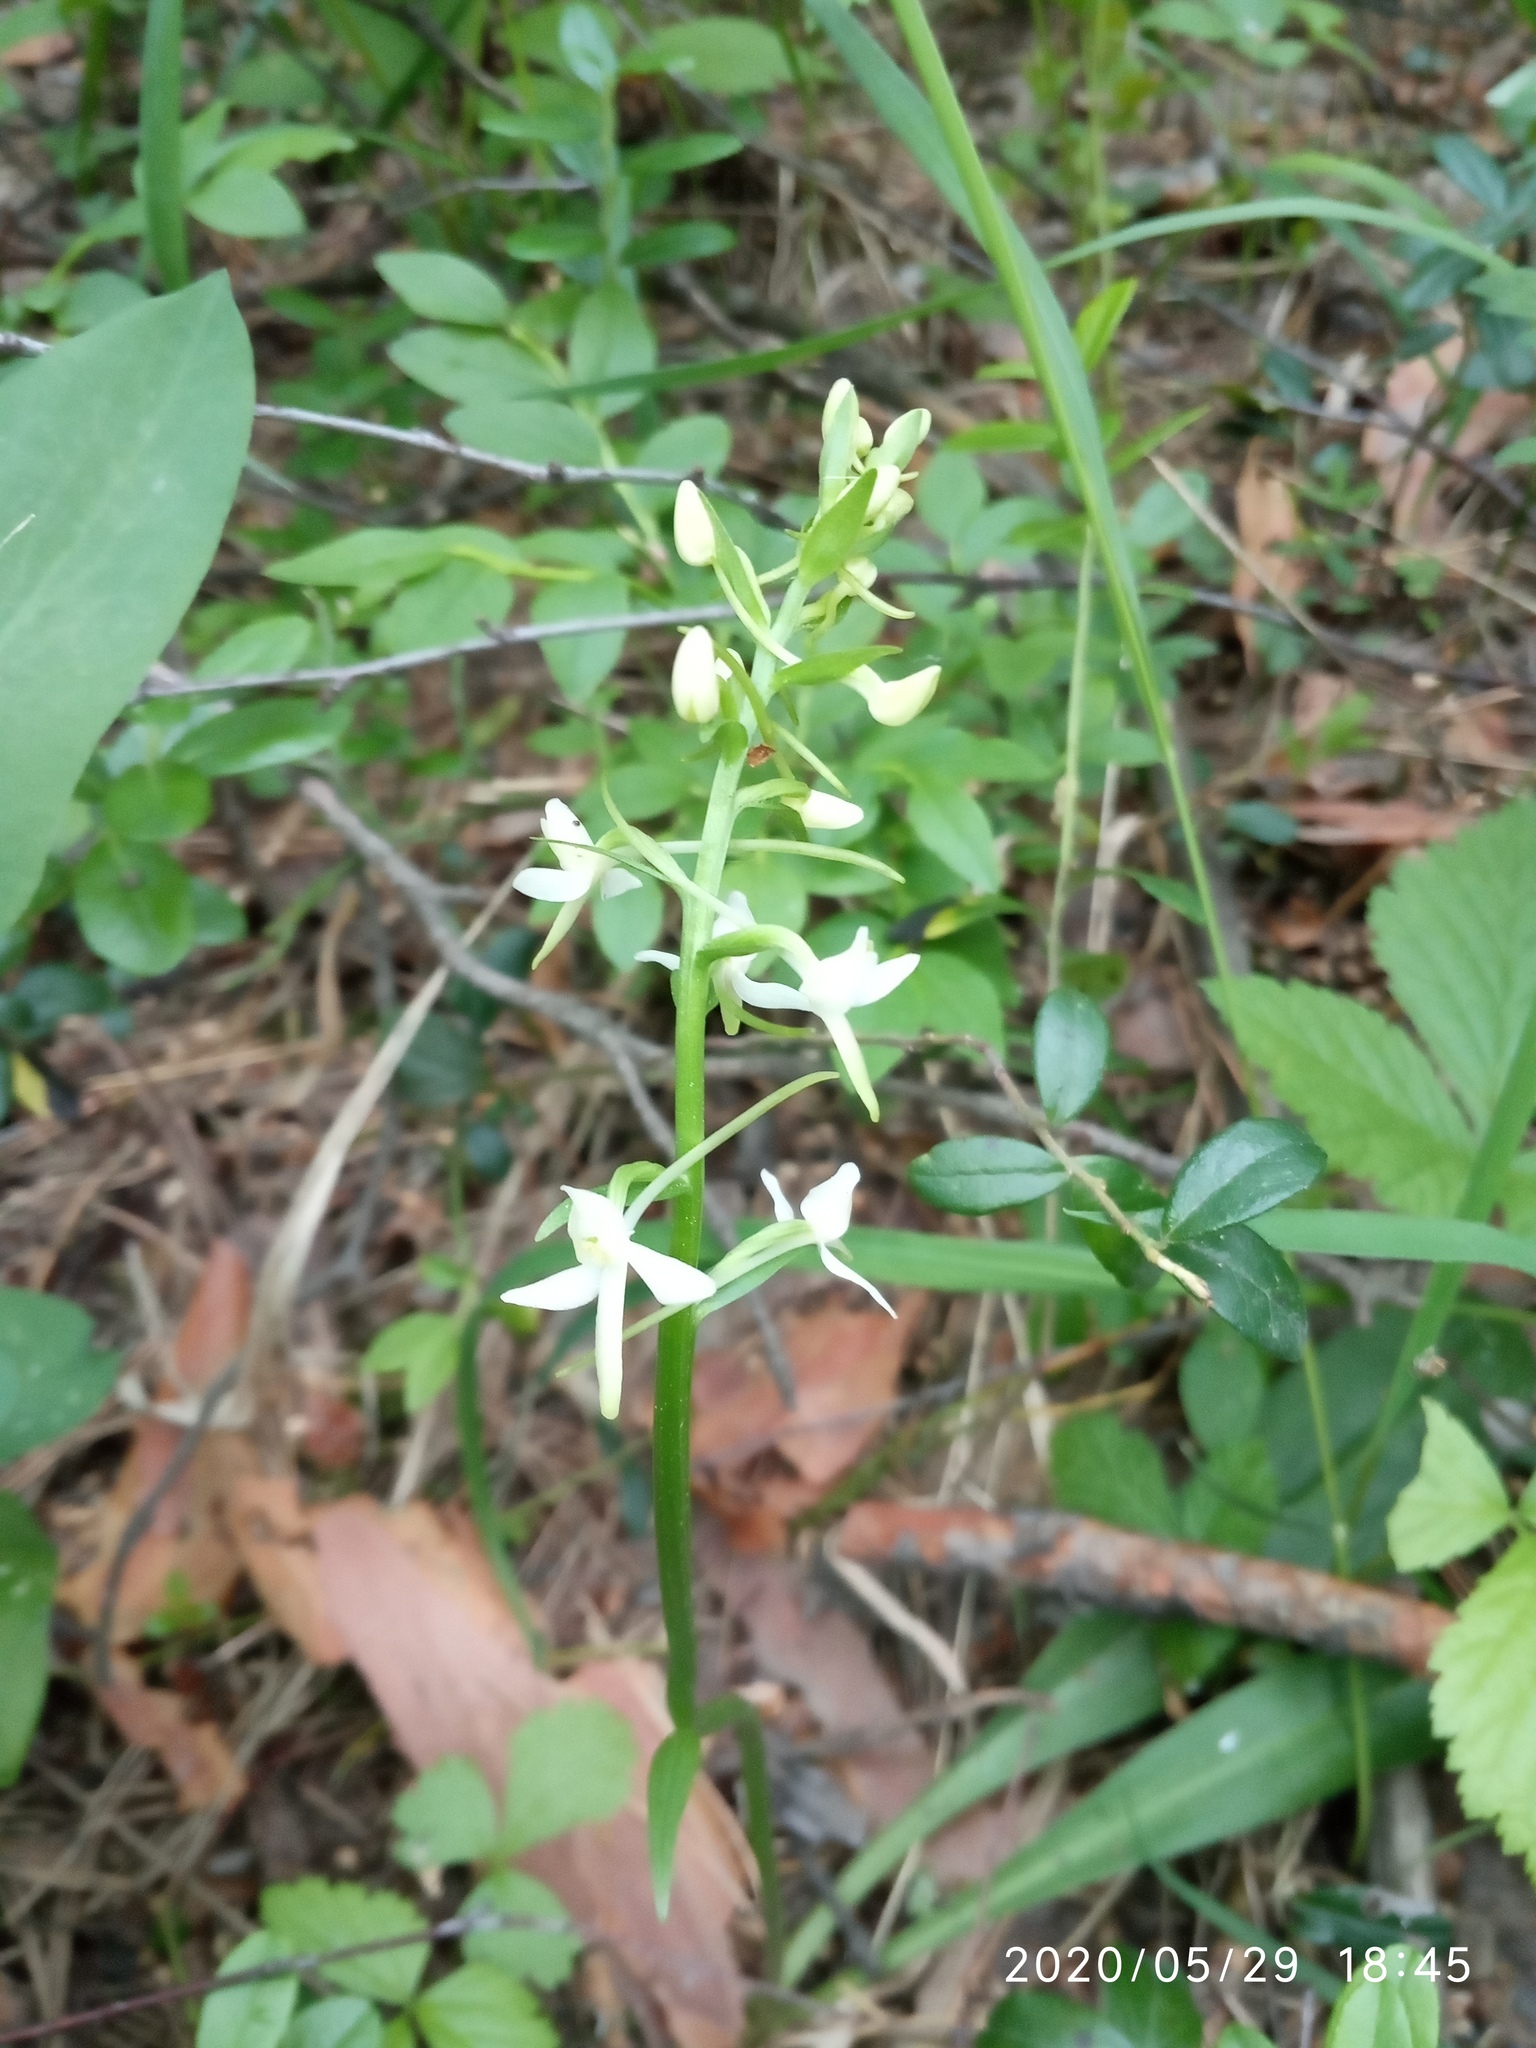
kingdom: Plantae
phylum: Tracheophyta
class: Liliopsida
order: Asparagales
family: Orchidaceae
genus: Platanthera
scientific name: Platanthera bifolia
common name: Lesser butterfly-orchid
